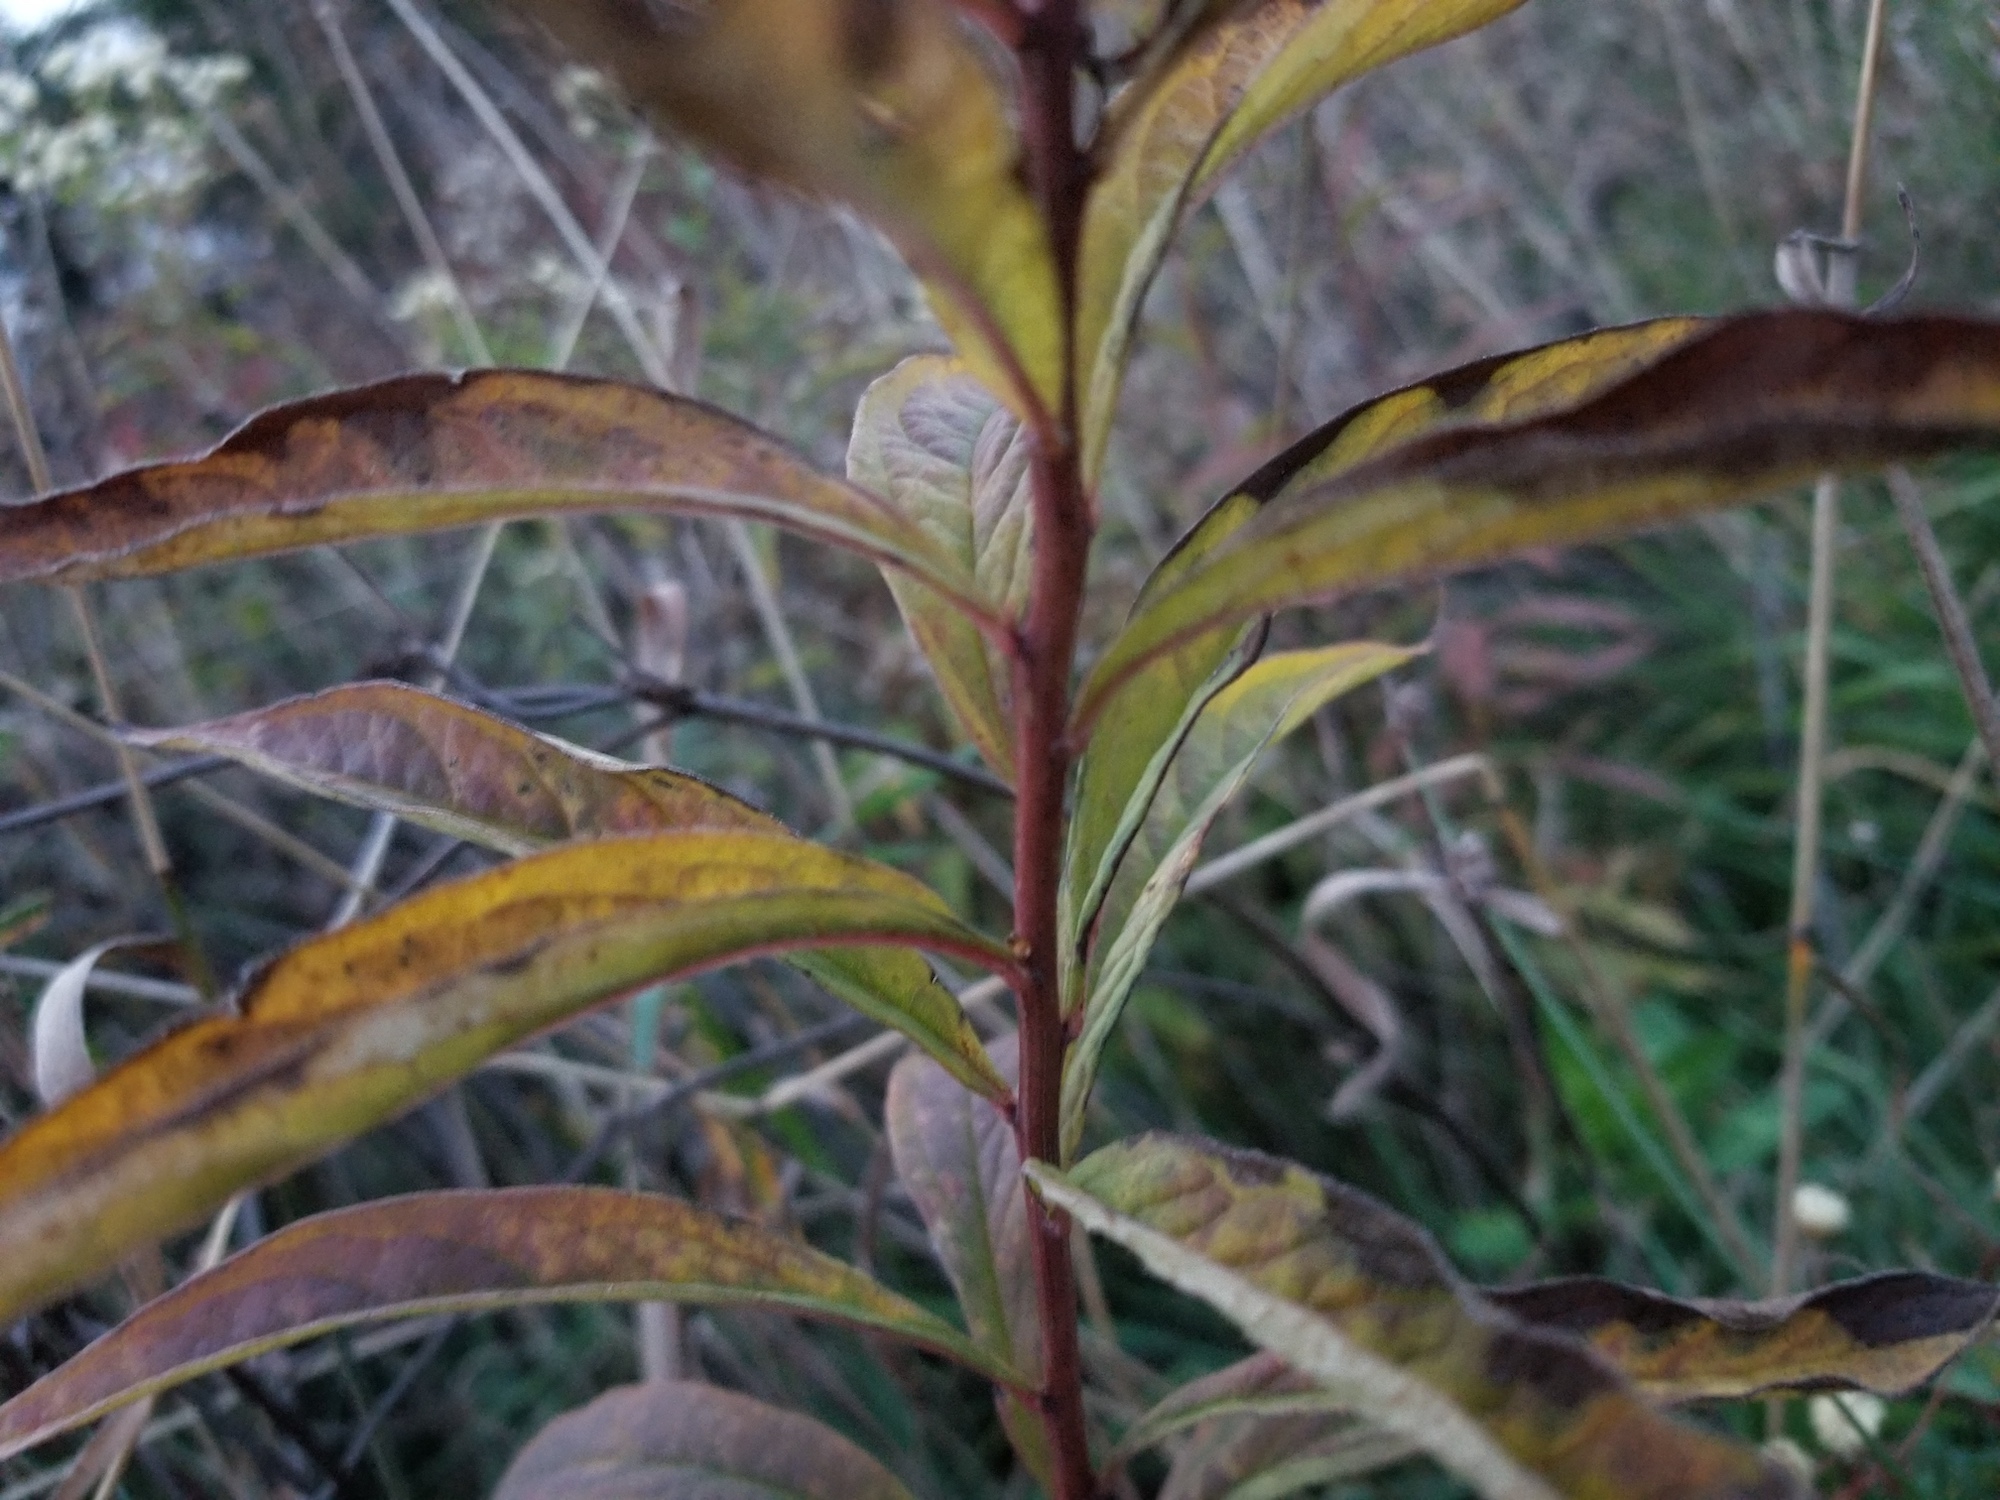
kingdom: Plantae
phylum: Tracheophyta
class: Magnoliopsida
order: Asterales
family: Asteraceae
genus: Doellingeria
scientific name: Doellingeria umbellata
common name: Flat-top white aster
